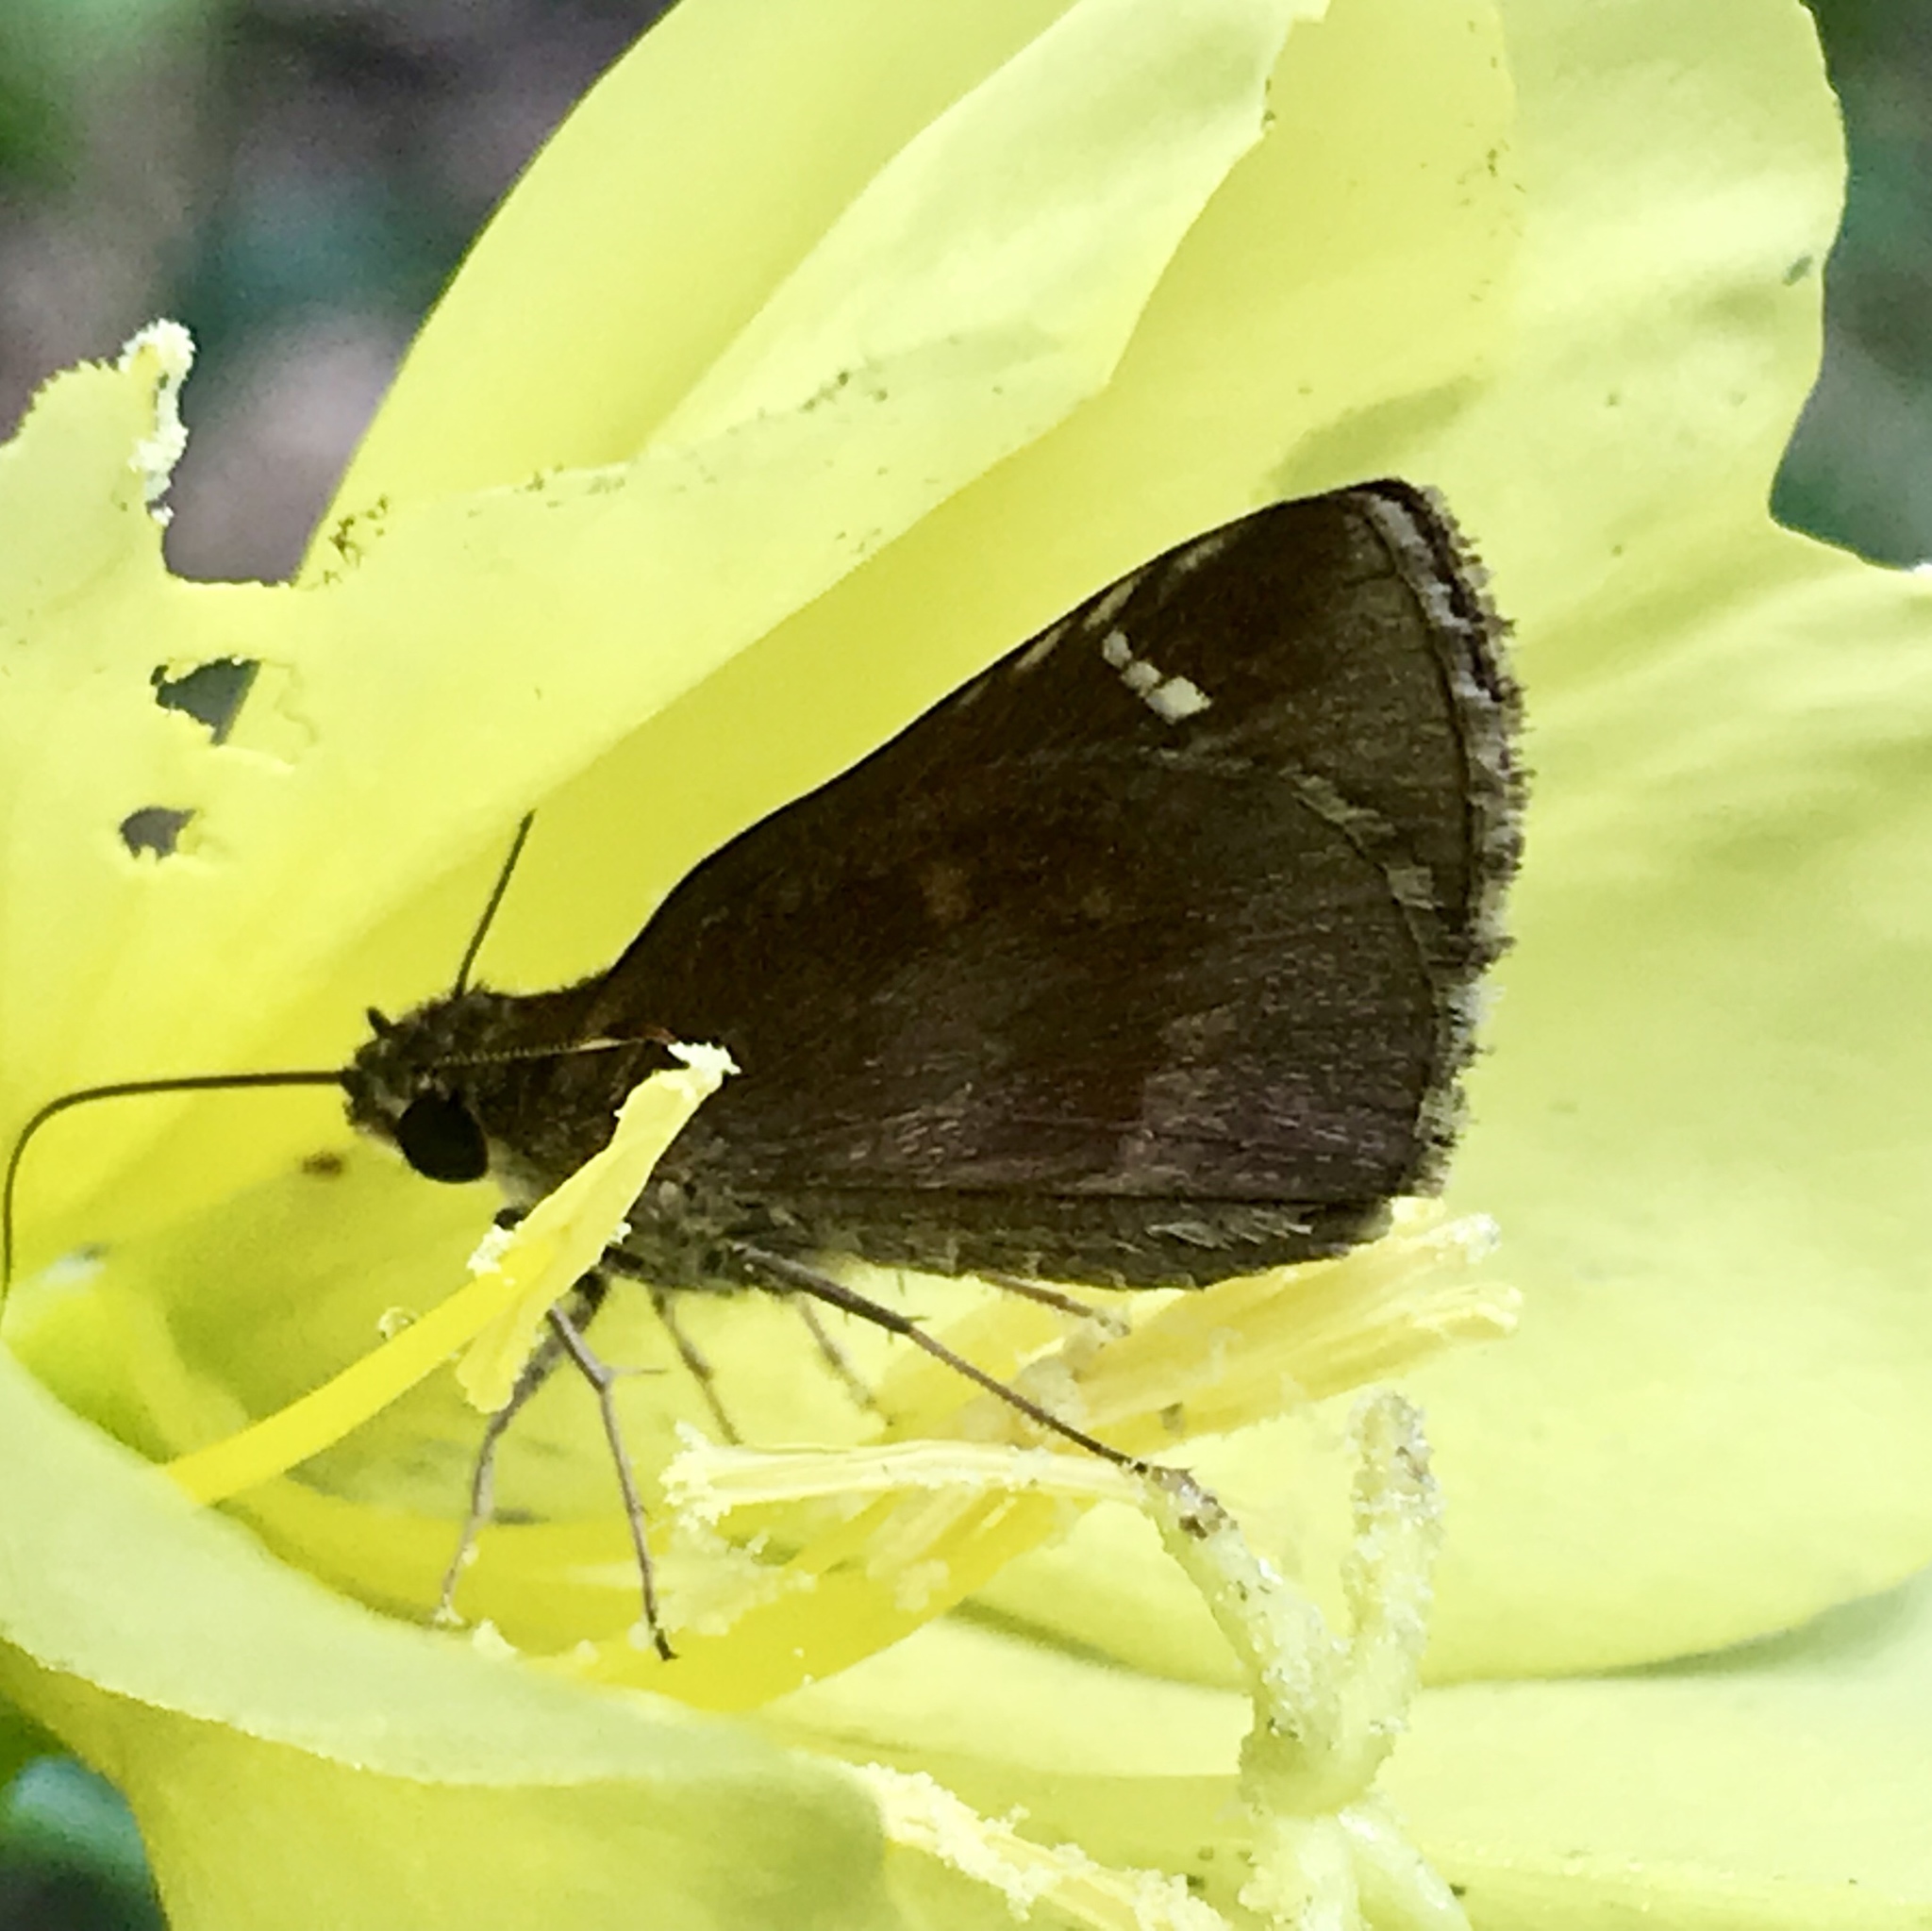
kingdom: Animalia
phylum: Arthropoda
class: Insecta
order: Lepidoptera
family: Hesperiidae
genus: Lerema
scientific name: Lerema accius
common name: Clouded skipper
